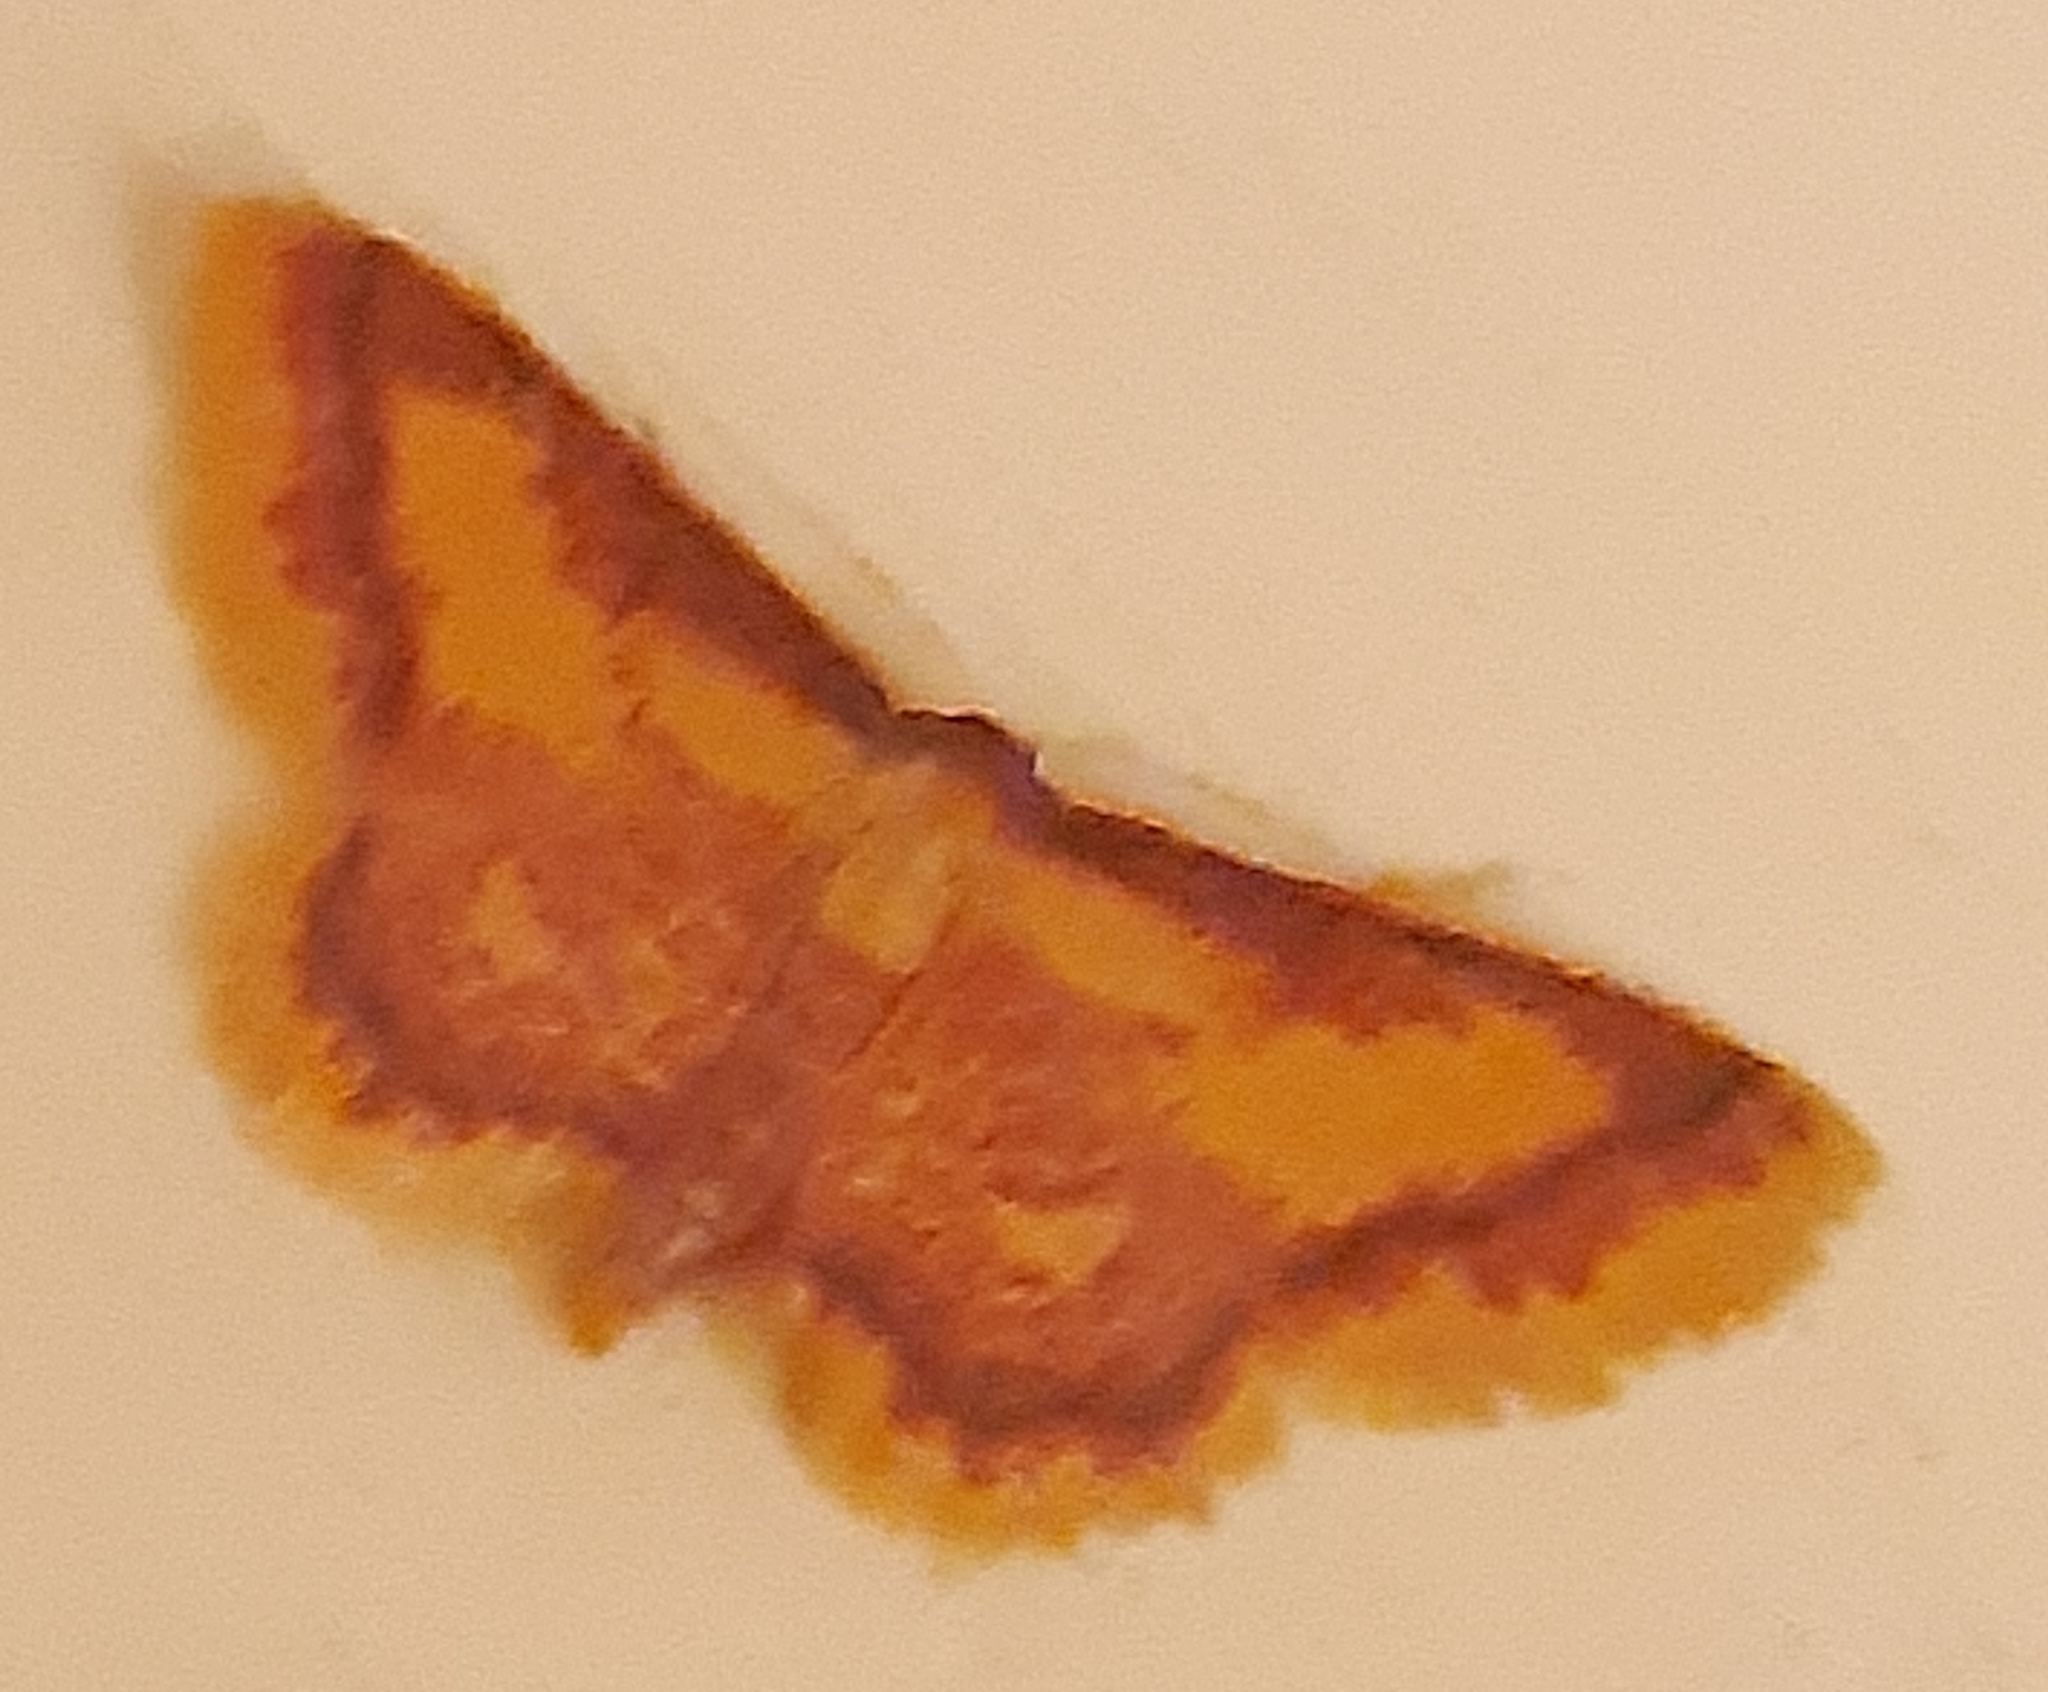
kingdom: Animalia
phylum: Arthropoda
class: Insecta
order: Lepidoptera
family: Geometridae
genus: Idaea
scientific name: Idaea muricata
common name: Purple-bordered gold
